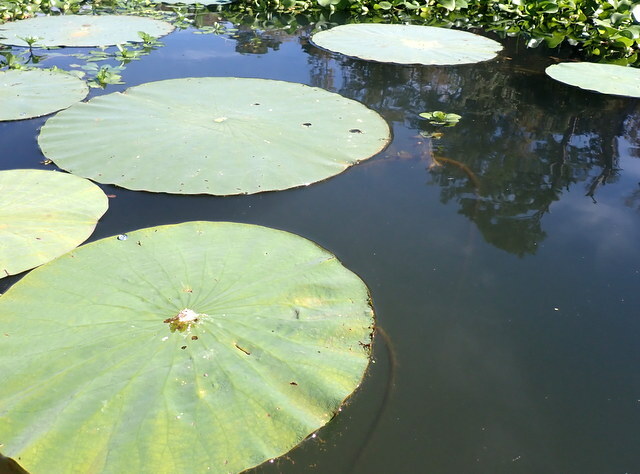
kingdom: Plantae
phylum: Tracheophyta
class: Magnoliopsida
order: Proteales
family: Nelumbonaceae
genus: Nelumbo
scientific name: Nelumbo lutea
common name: American lotus
